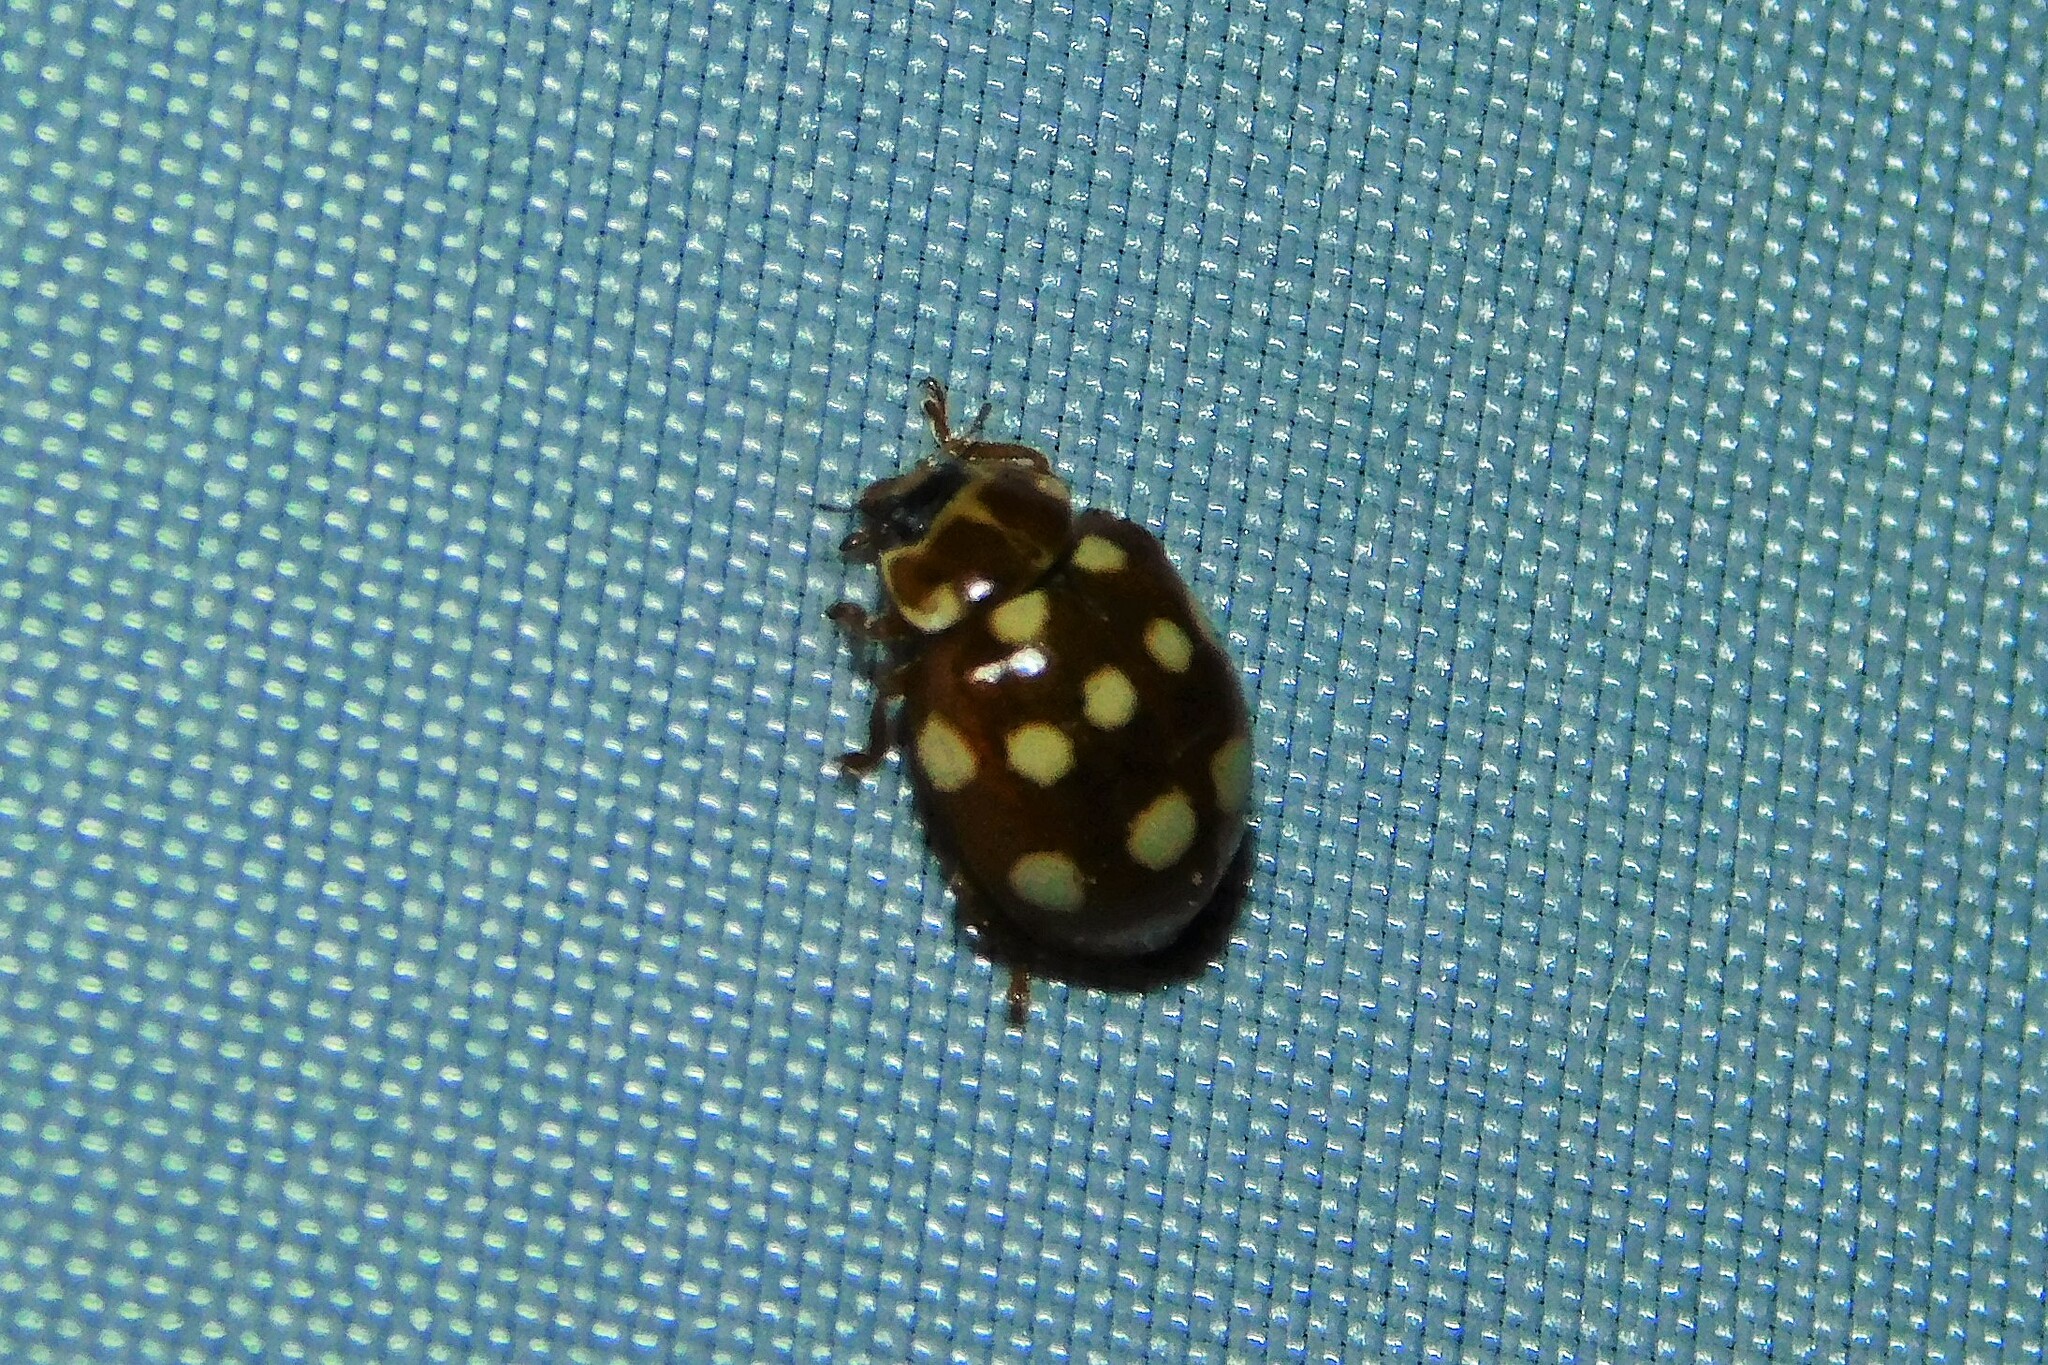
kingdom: Animalia
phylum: Arthropoda
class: Insecta
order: Coleoptera
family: Coccinellidae
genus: Calvia
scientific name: Calvia quatuordecimguttata
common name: Cream-spot ladybird
